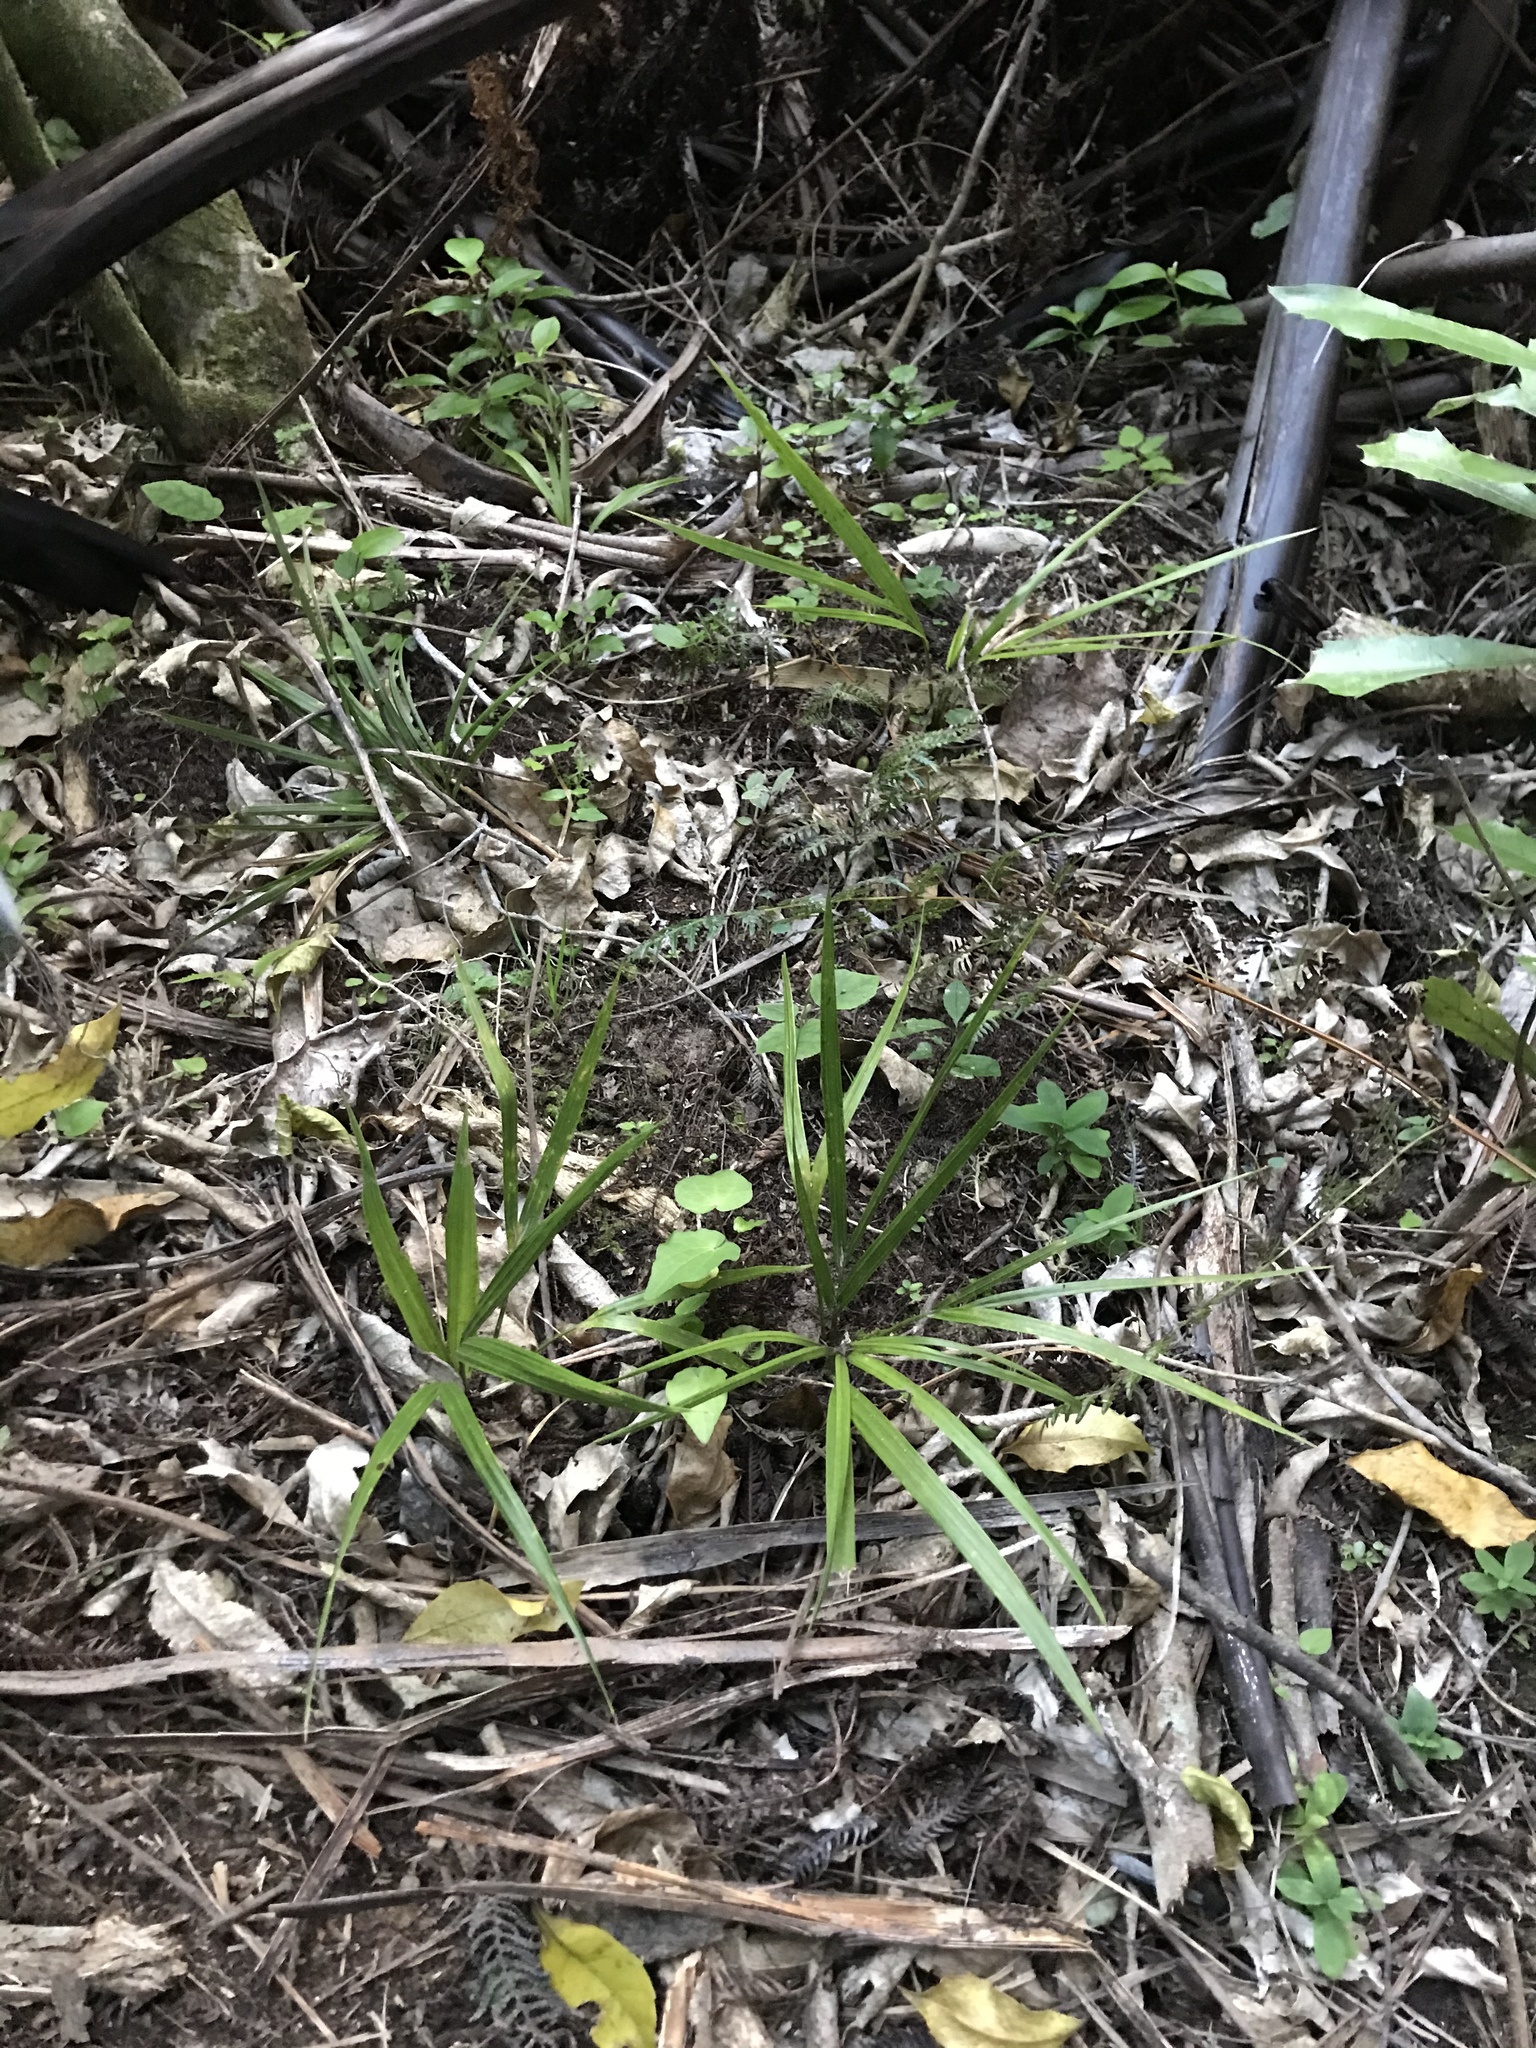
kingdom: Plantae
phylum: Tracheophyta
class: Liliopsida
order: Arecales
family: Arecaceae
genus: Rhopalostylis
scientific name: Rhopalostylis sapida
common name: Feather-duster palm
